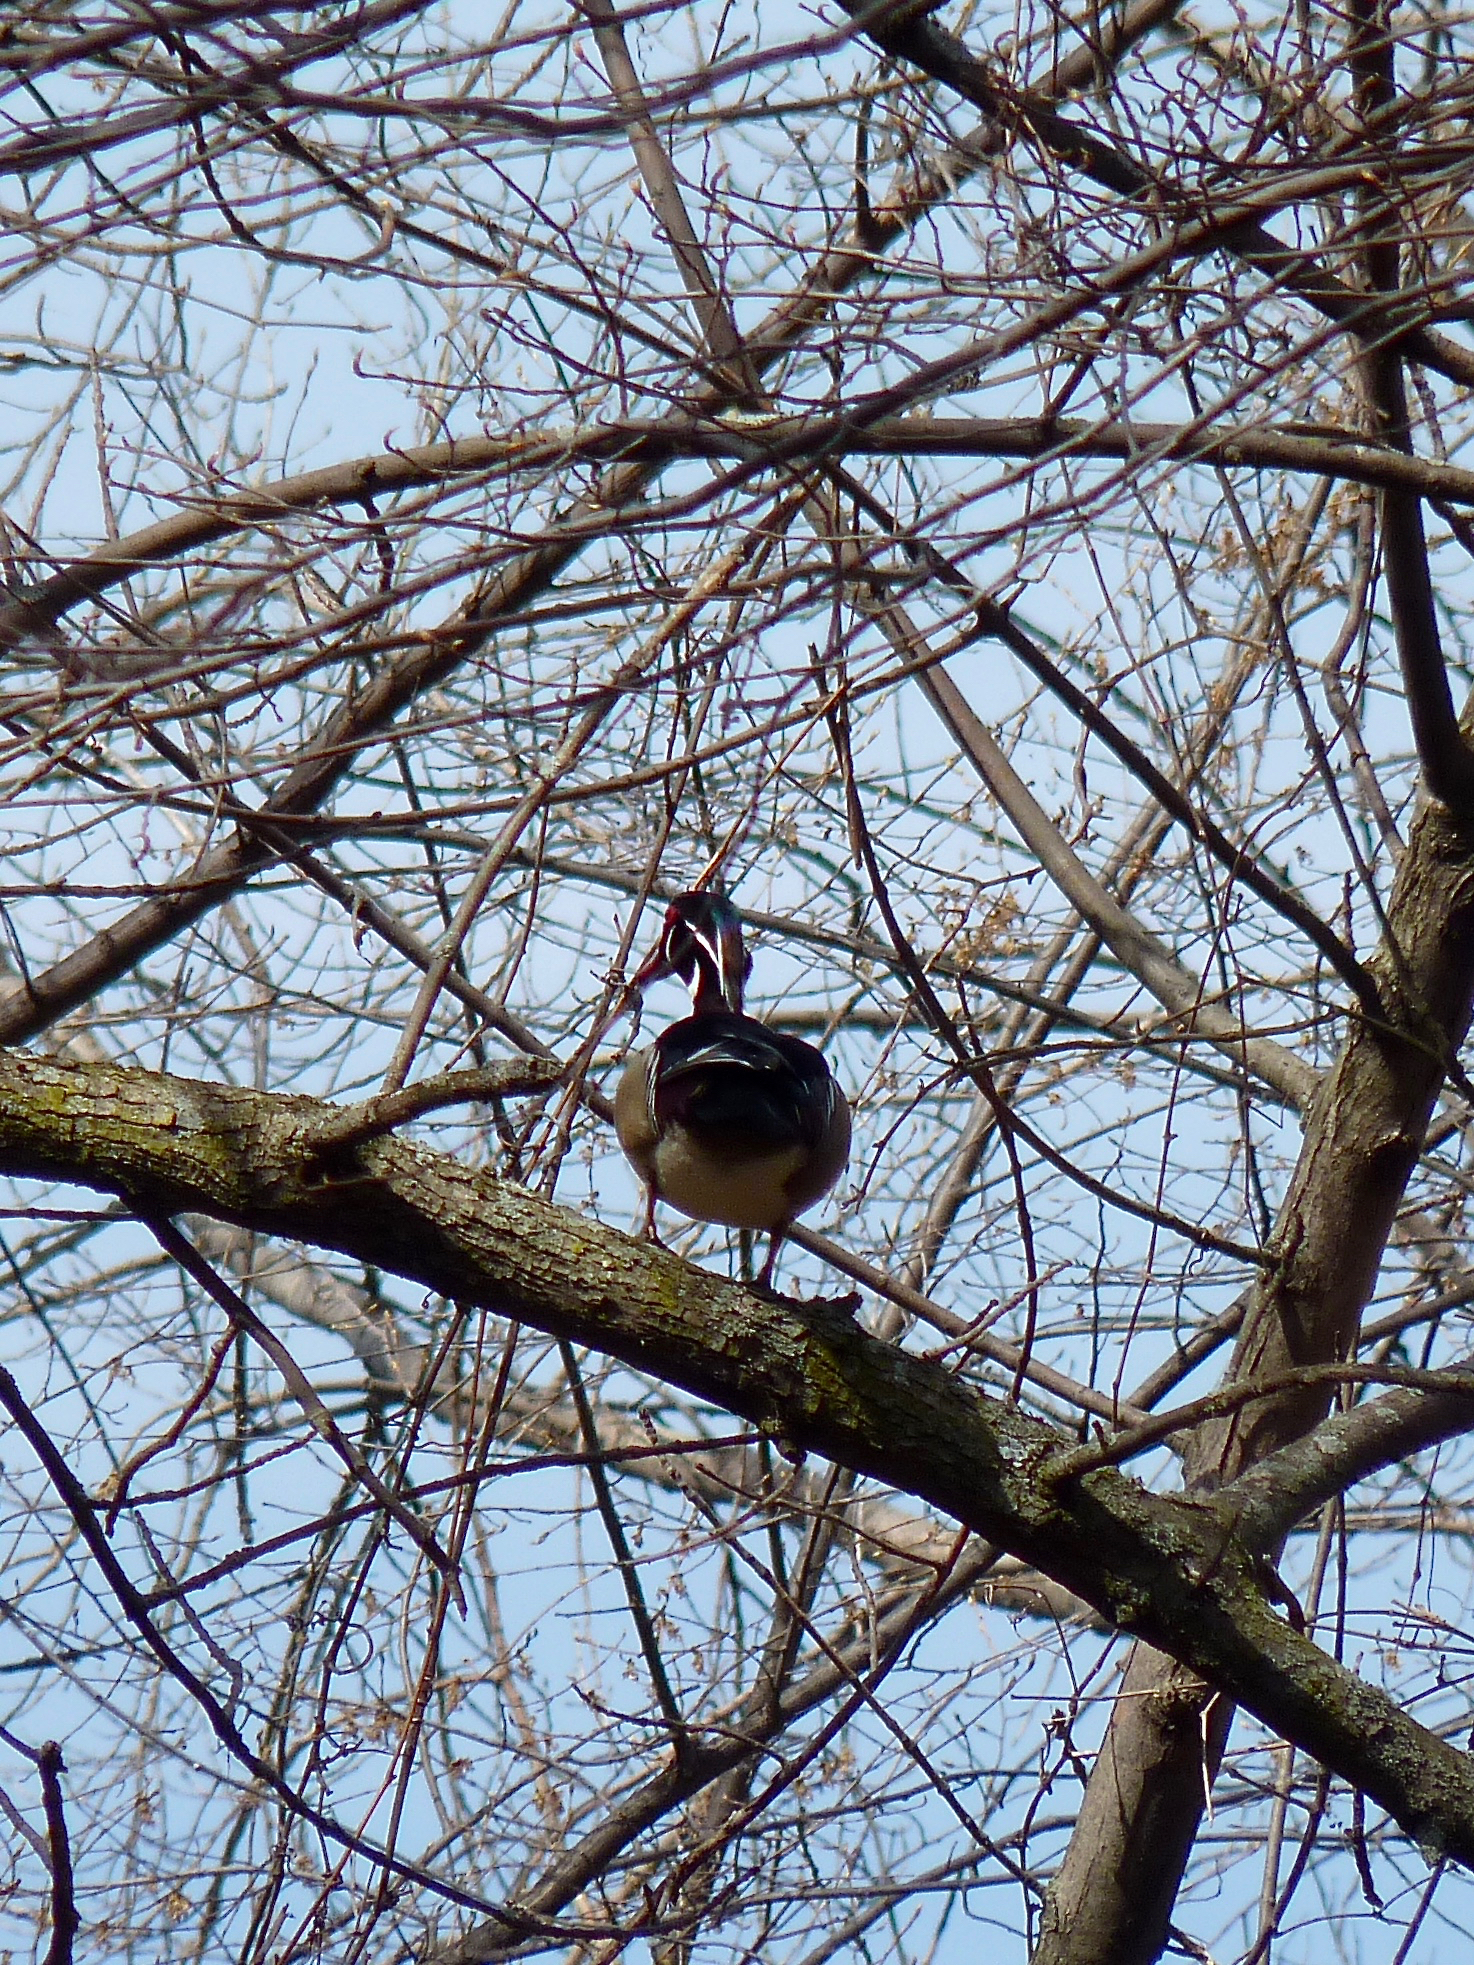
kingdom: Animalia
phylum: Chordata
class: Aves
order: Anseriformes
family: Anatidae
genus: Aix
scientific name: Aix sponsa
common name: Wood duck
